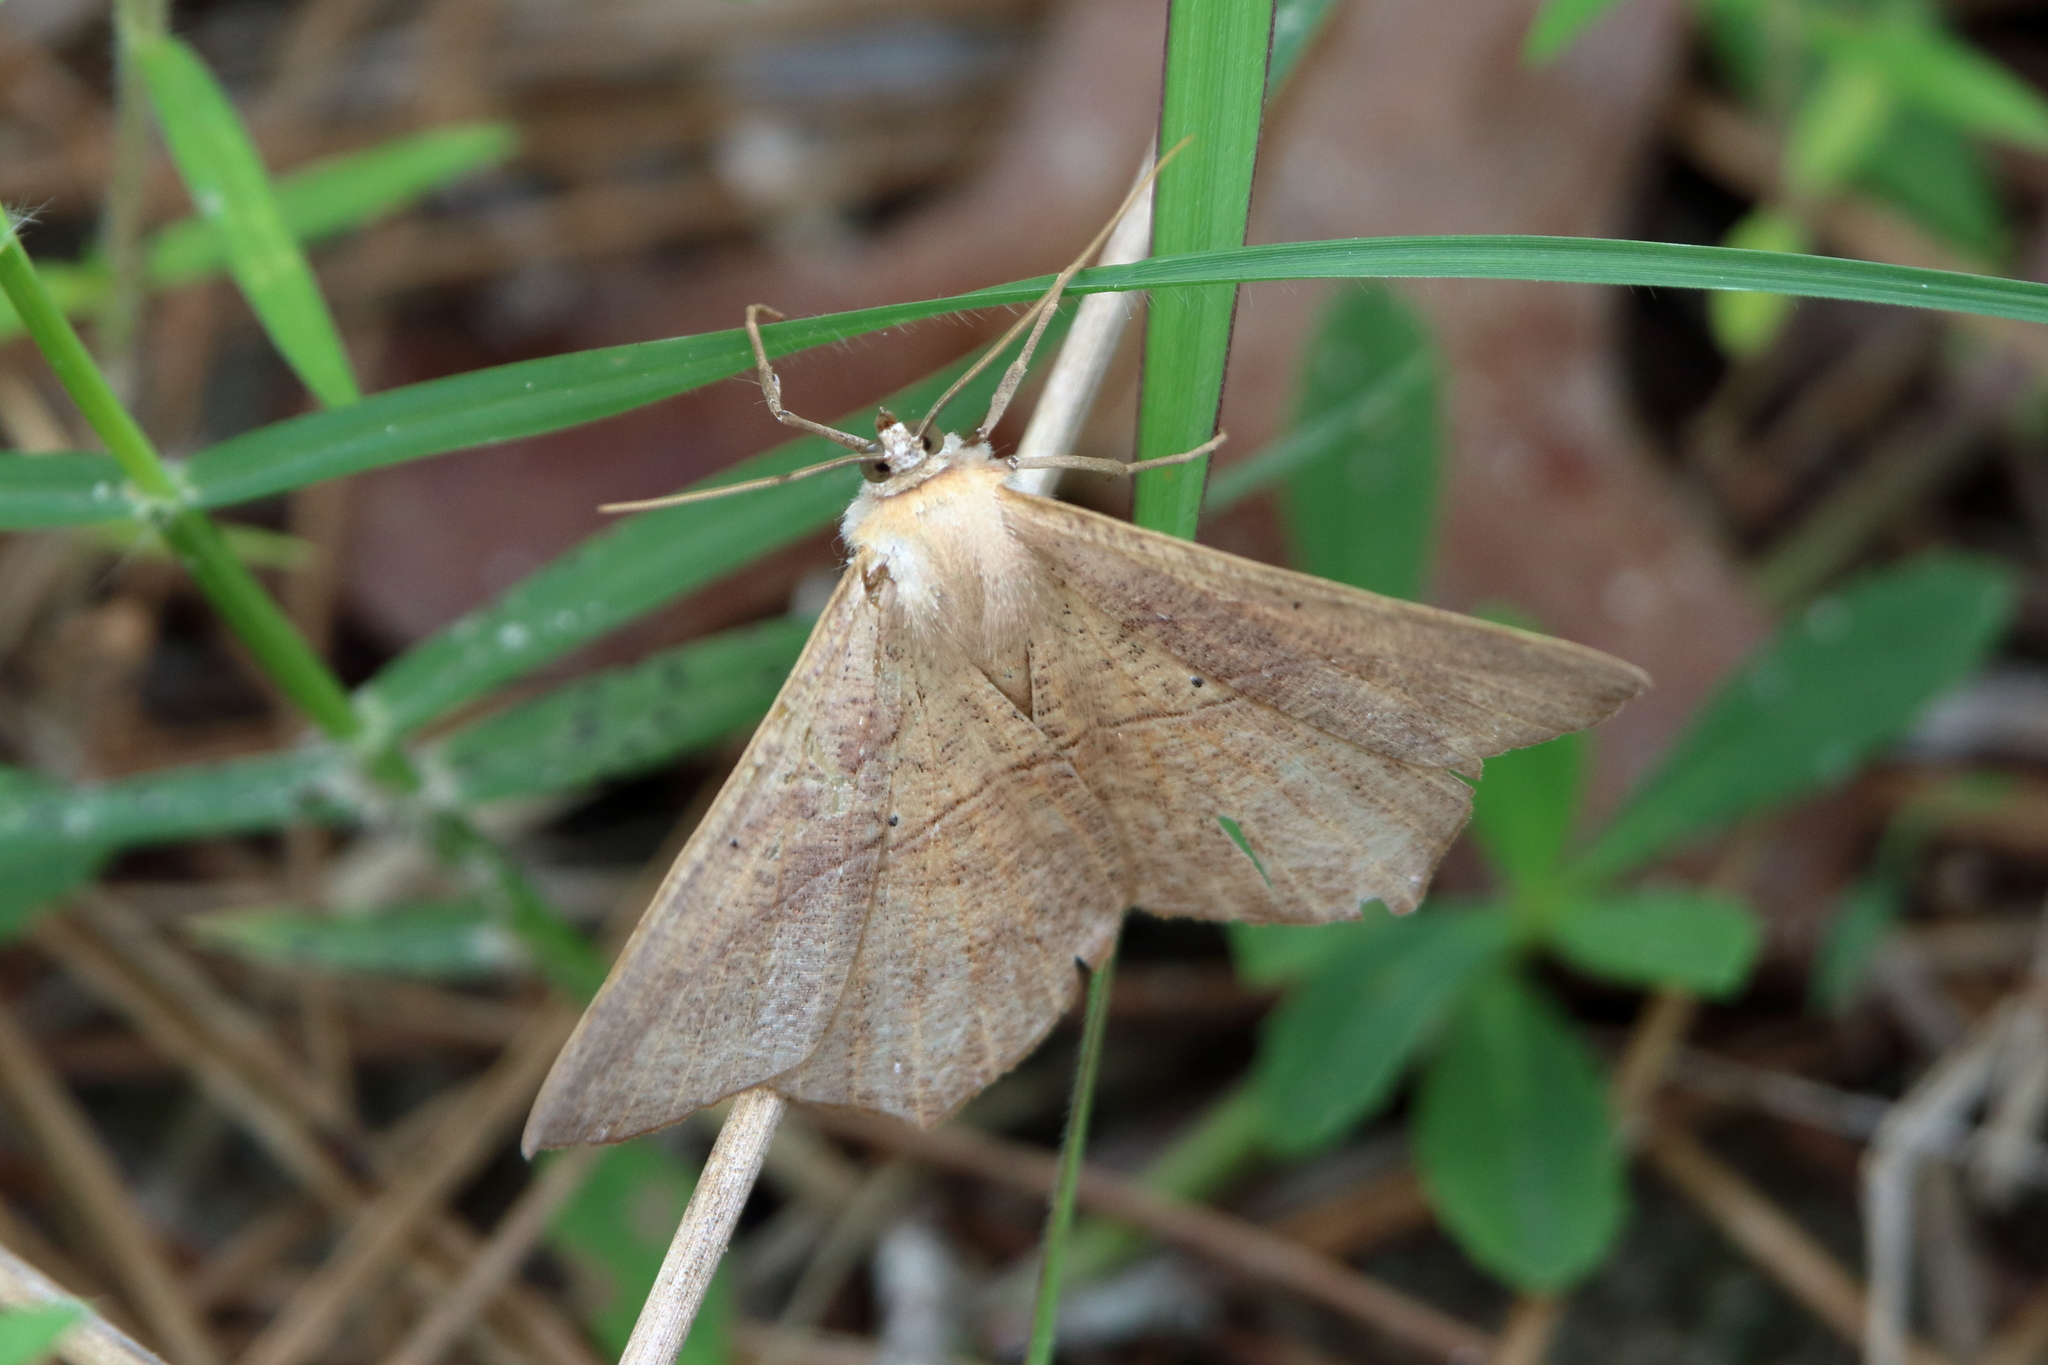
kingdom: Animalia
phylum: Arthropoda
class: Insecta
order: Lepidoptera
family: Geometridae
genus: Prochoerodes
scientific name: Prochoerodes lineola
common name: Large maple spanworm
